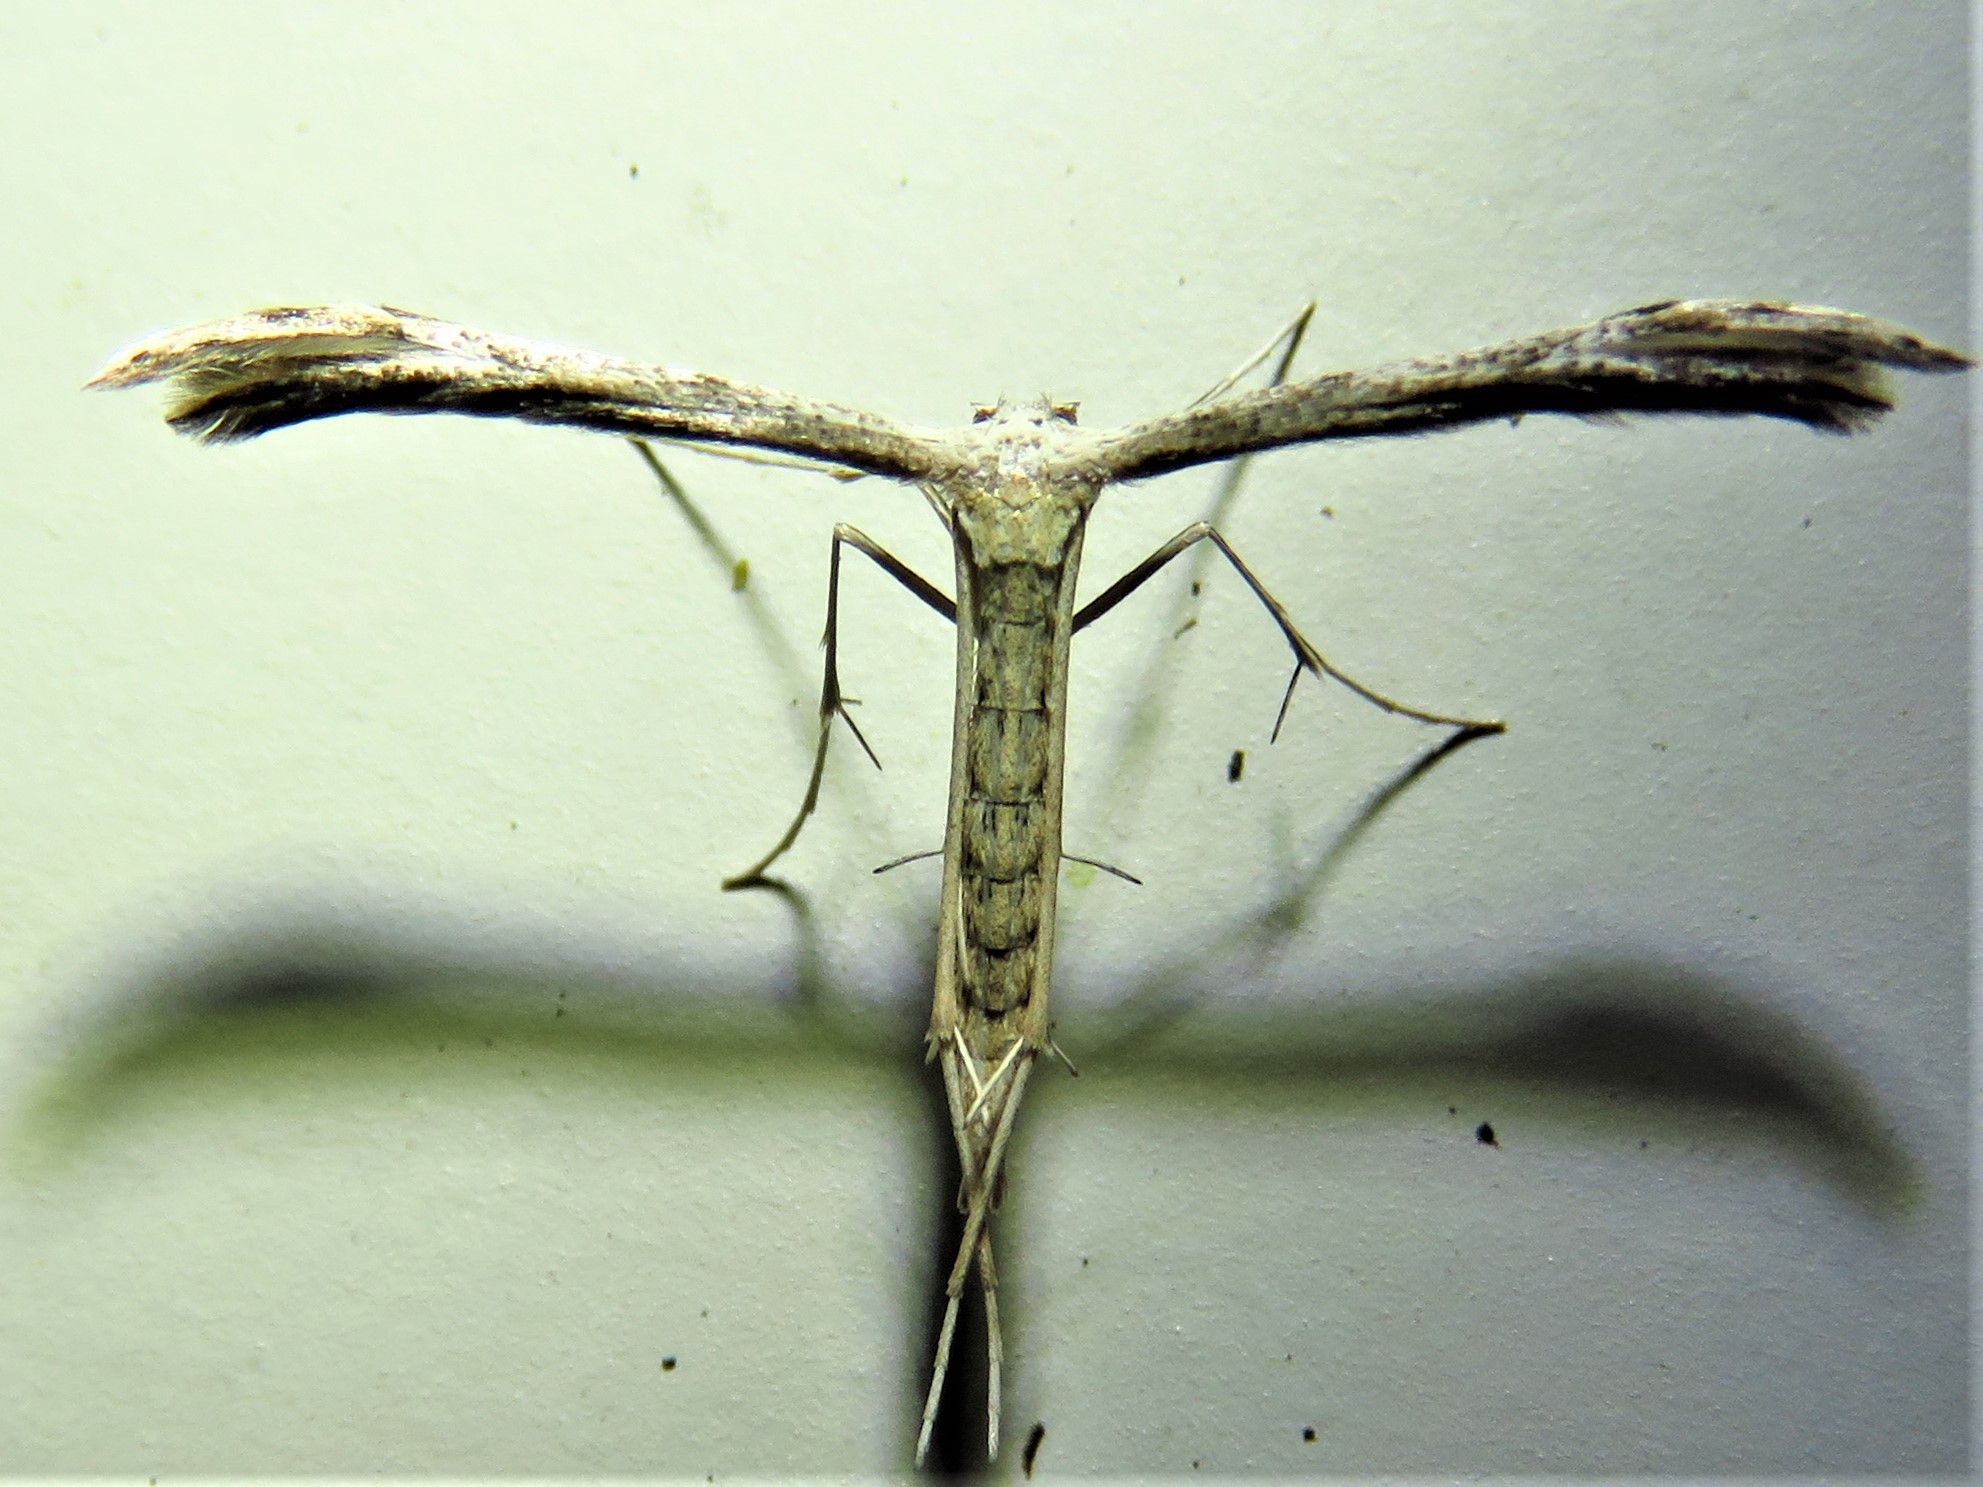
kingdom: Animalia
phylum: Arthropoda
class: Insecta
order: Lepidoptera
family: Pterophoridae
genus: Pselnophorus
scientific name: Pselnophorus belfragei
